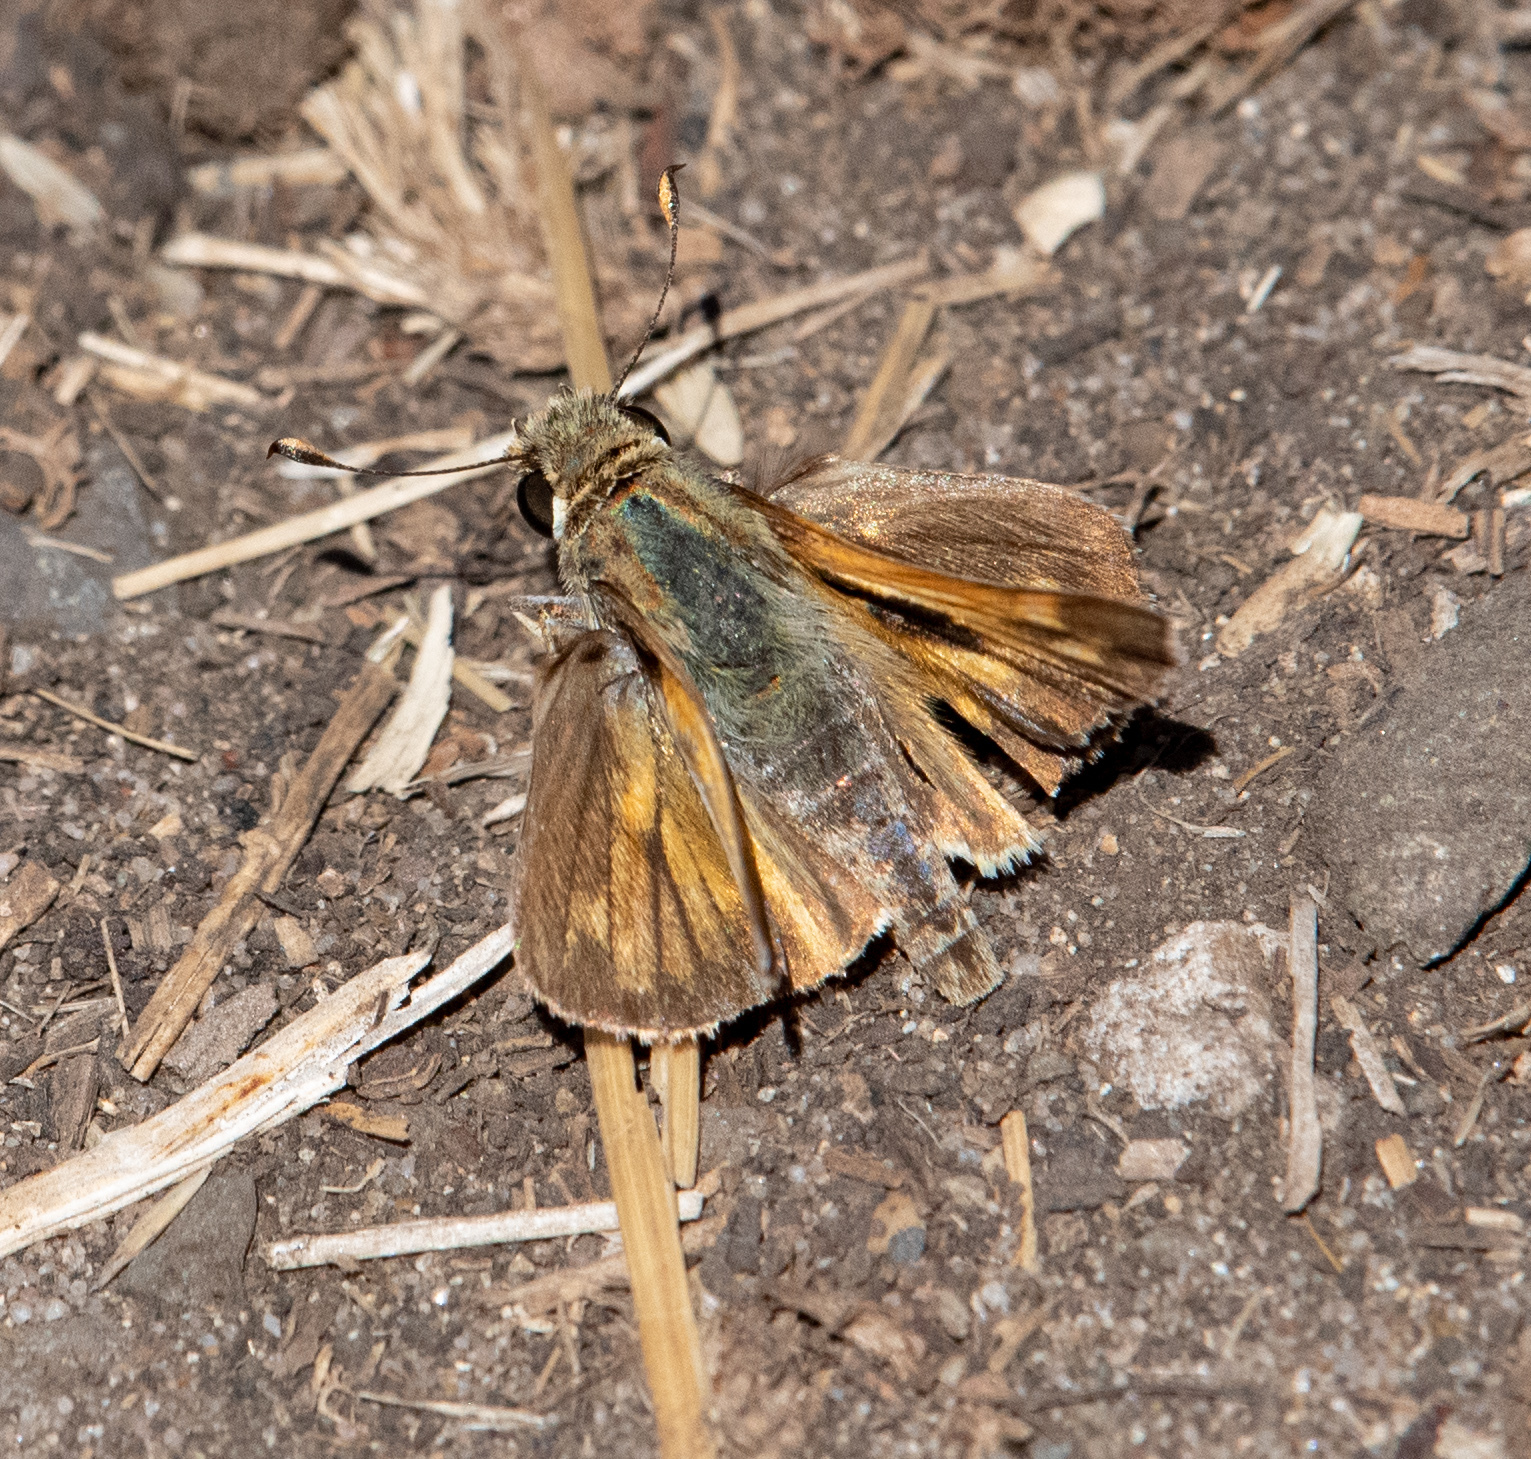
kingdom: Animalia
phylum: Arthropoda
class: Insecta
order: Lepidoptera
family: Hesperiidae
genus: Atalopedes
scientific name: Atalopedes campestris
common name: Sachem
